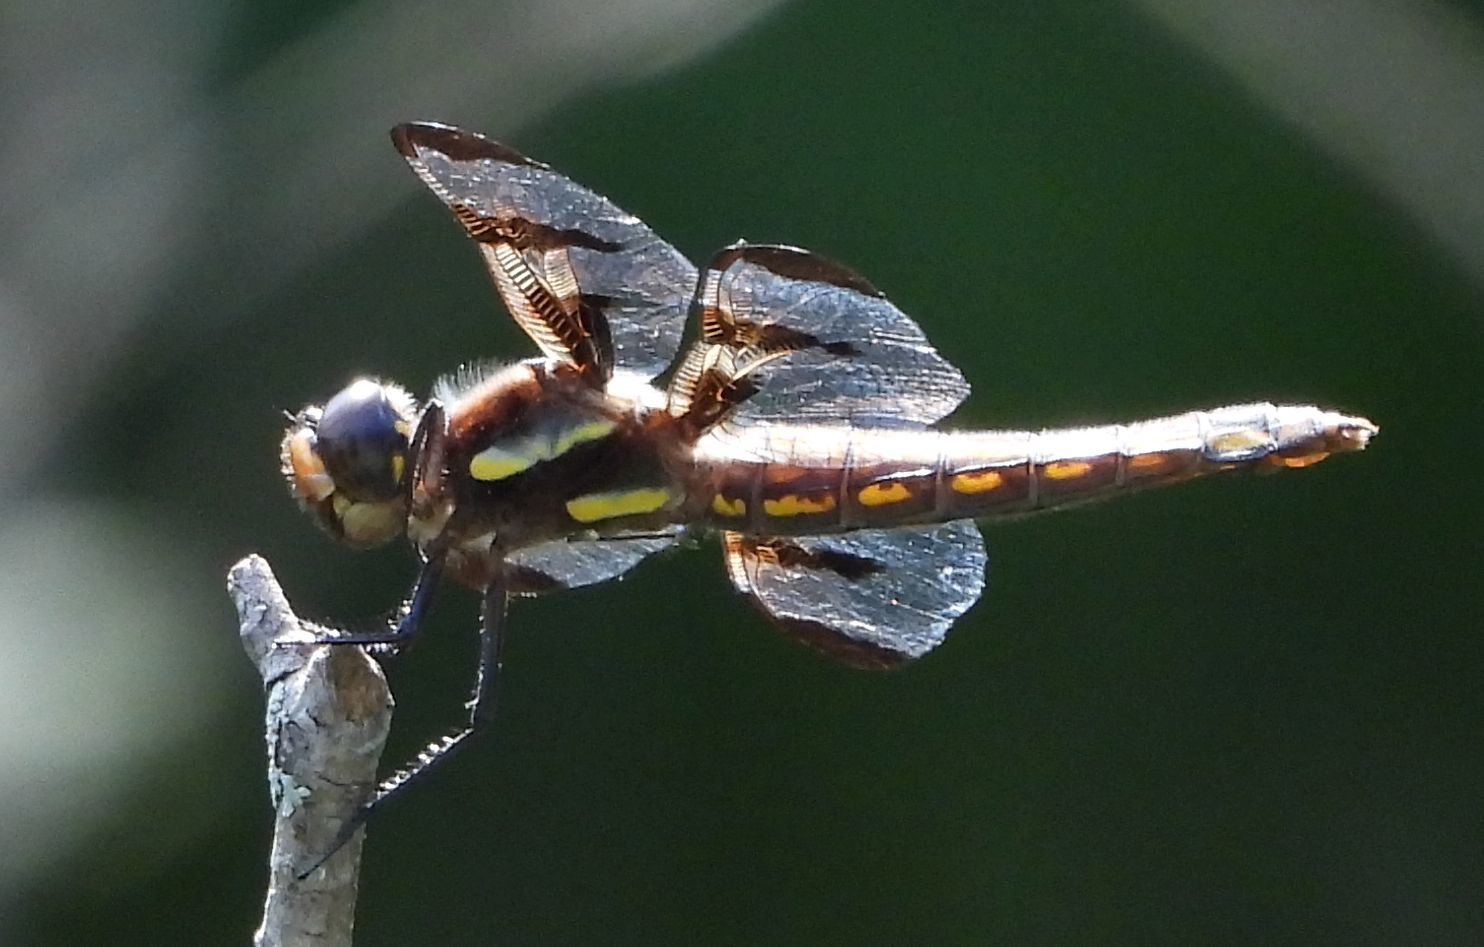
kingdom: Animalia
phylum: Arthropoda
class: Insecta
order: Odonata
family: Libellulidae
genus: Libellula
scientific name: Libellula pulchella
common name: Twelve-spotted skimmer
